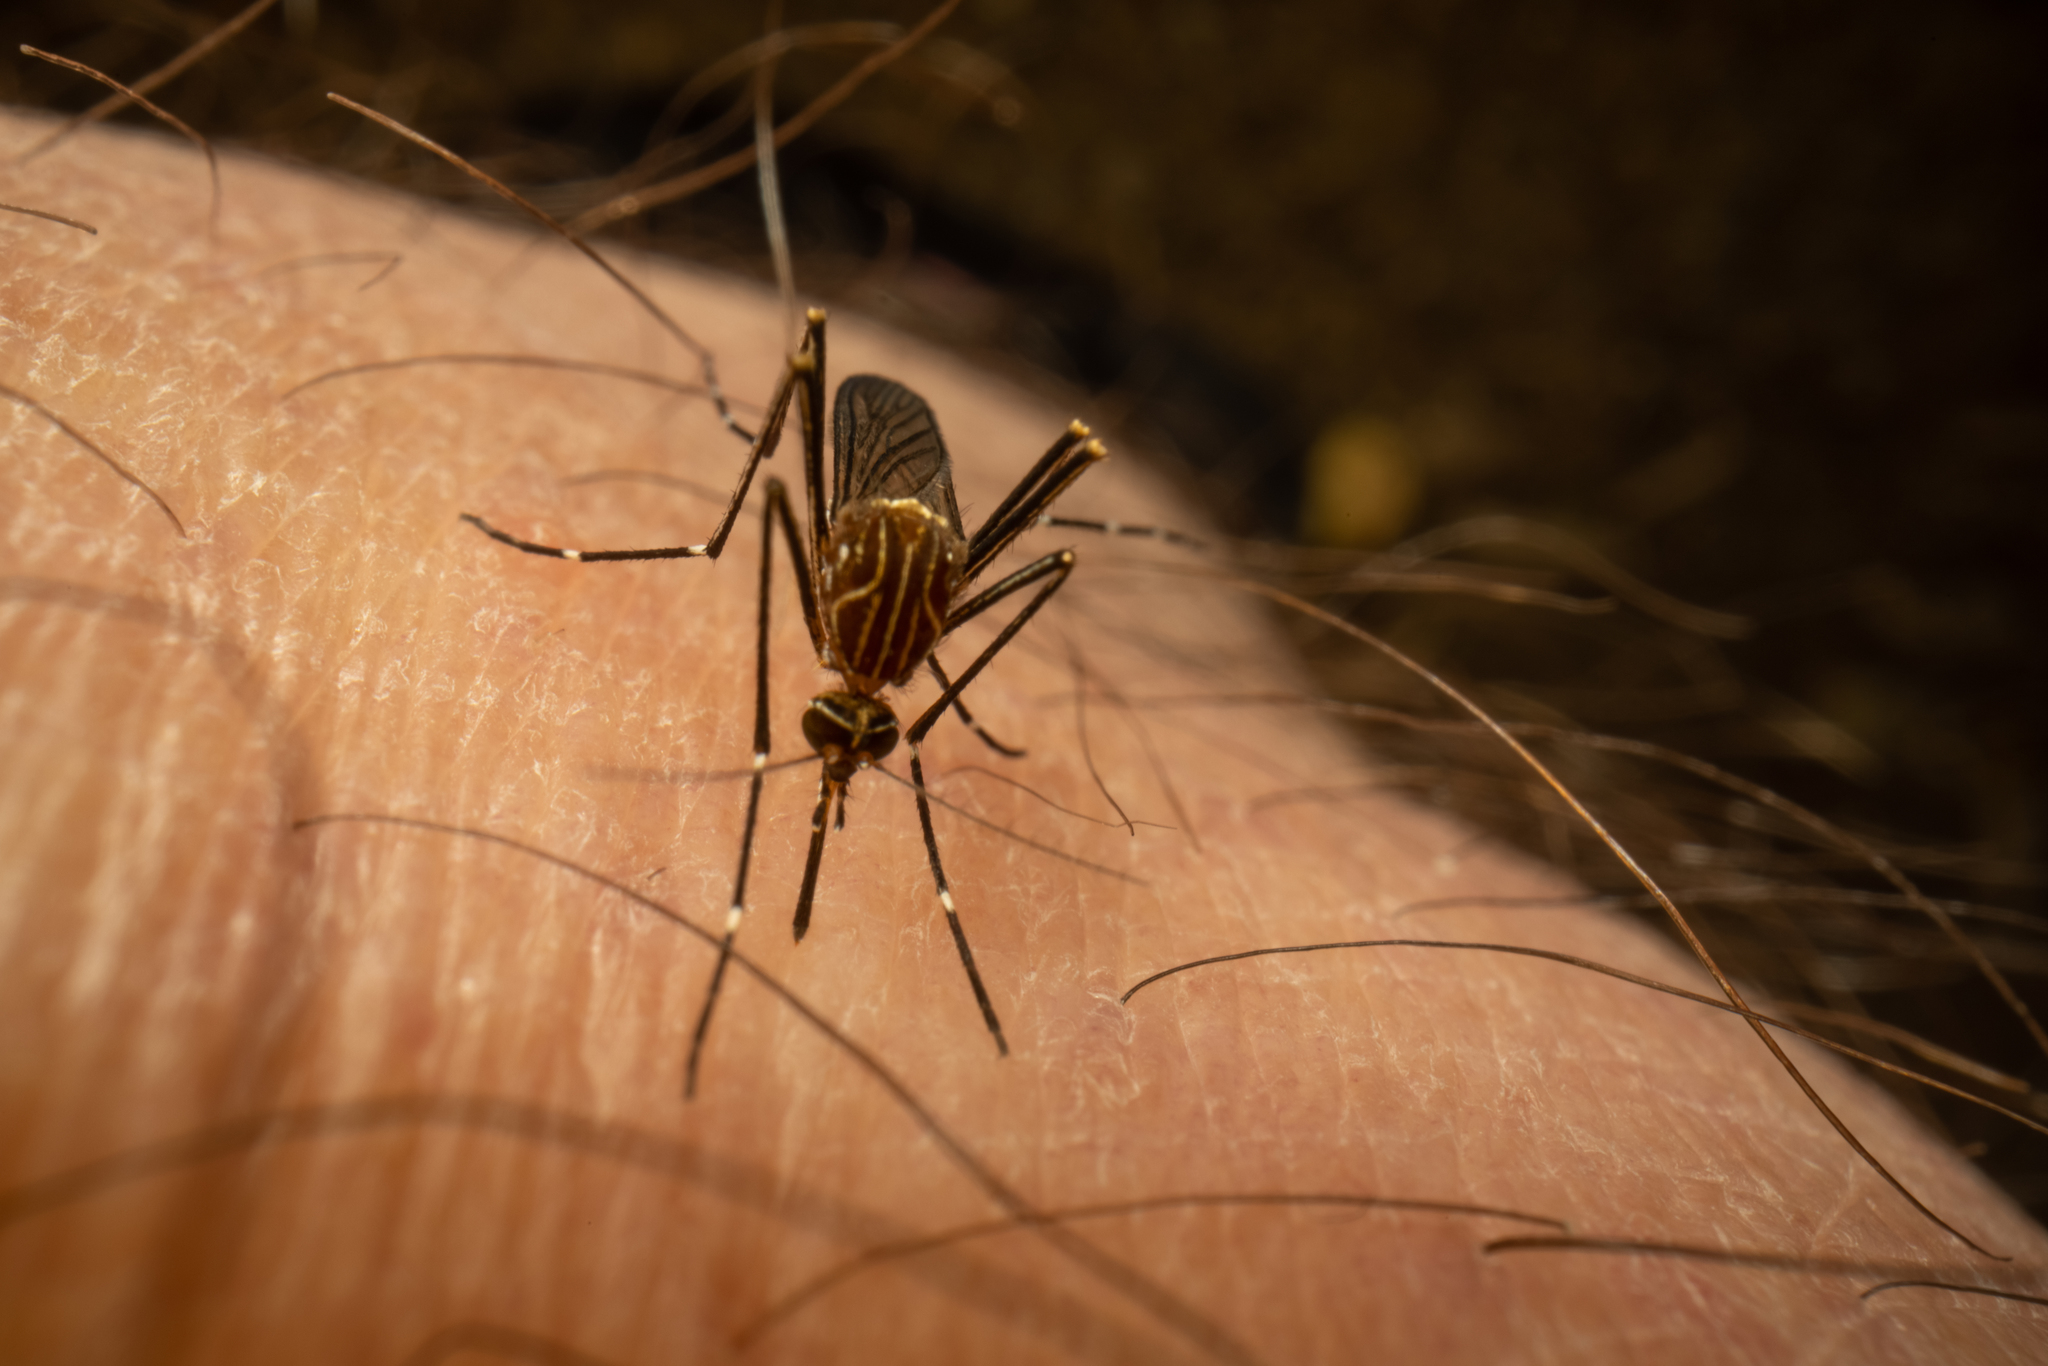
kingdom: Animalia
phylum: Arthropoda
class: Insecta
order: Diptera
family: Culicidae
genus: Aedes
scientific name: Aedes notoscriptus
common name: Australian backyard mosquito
